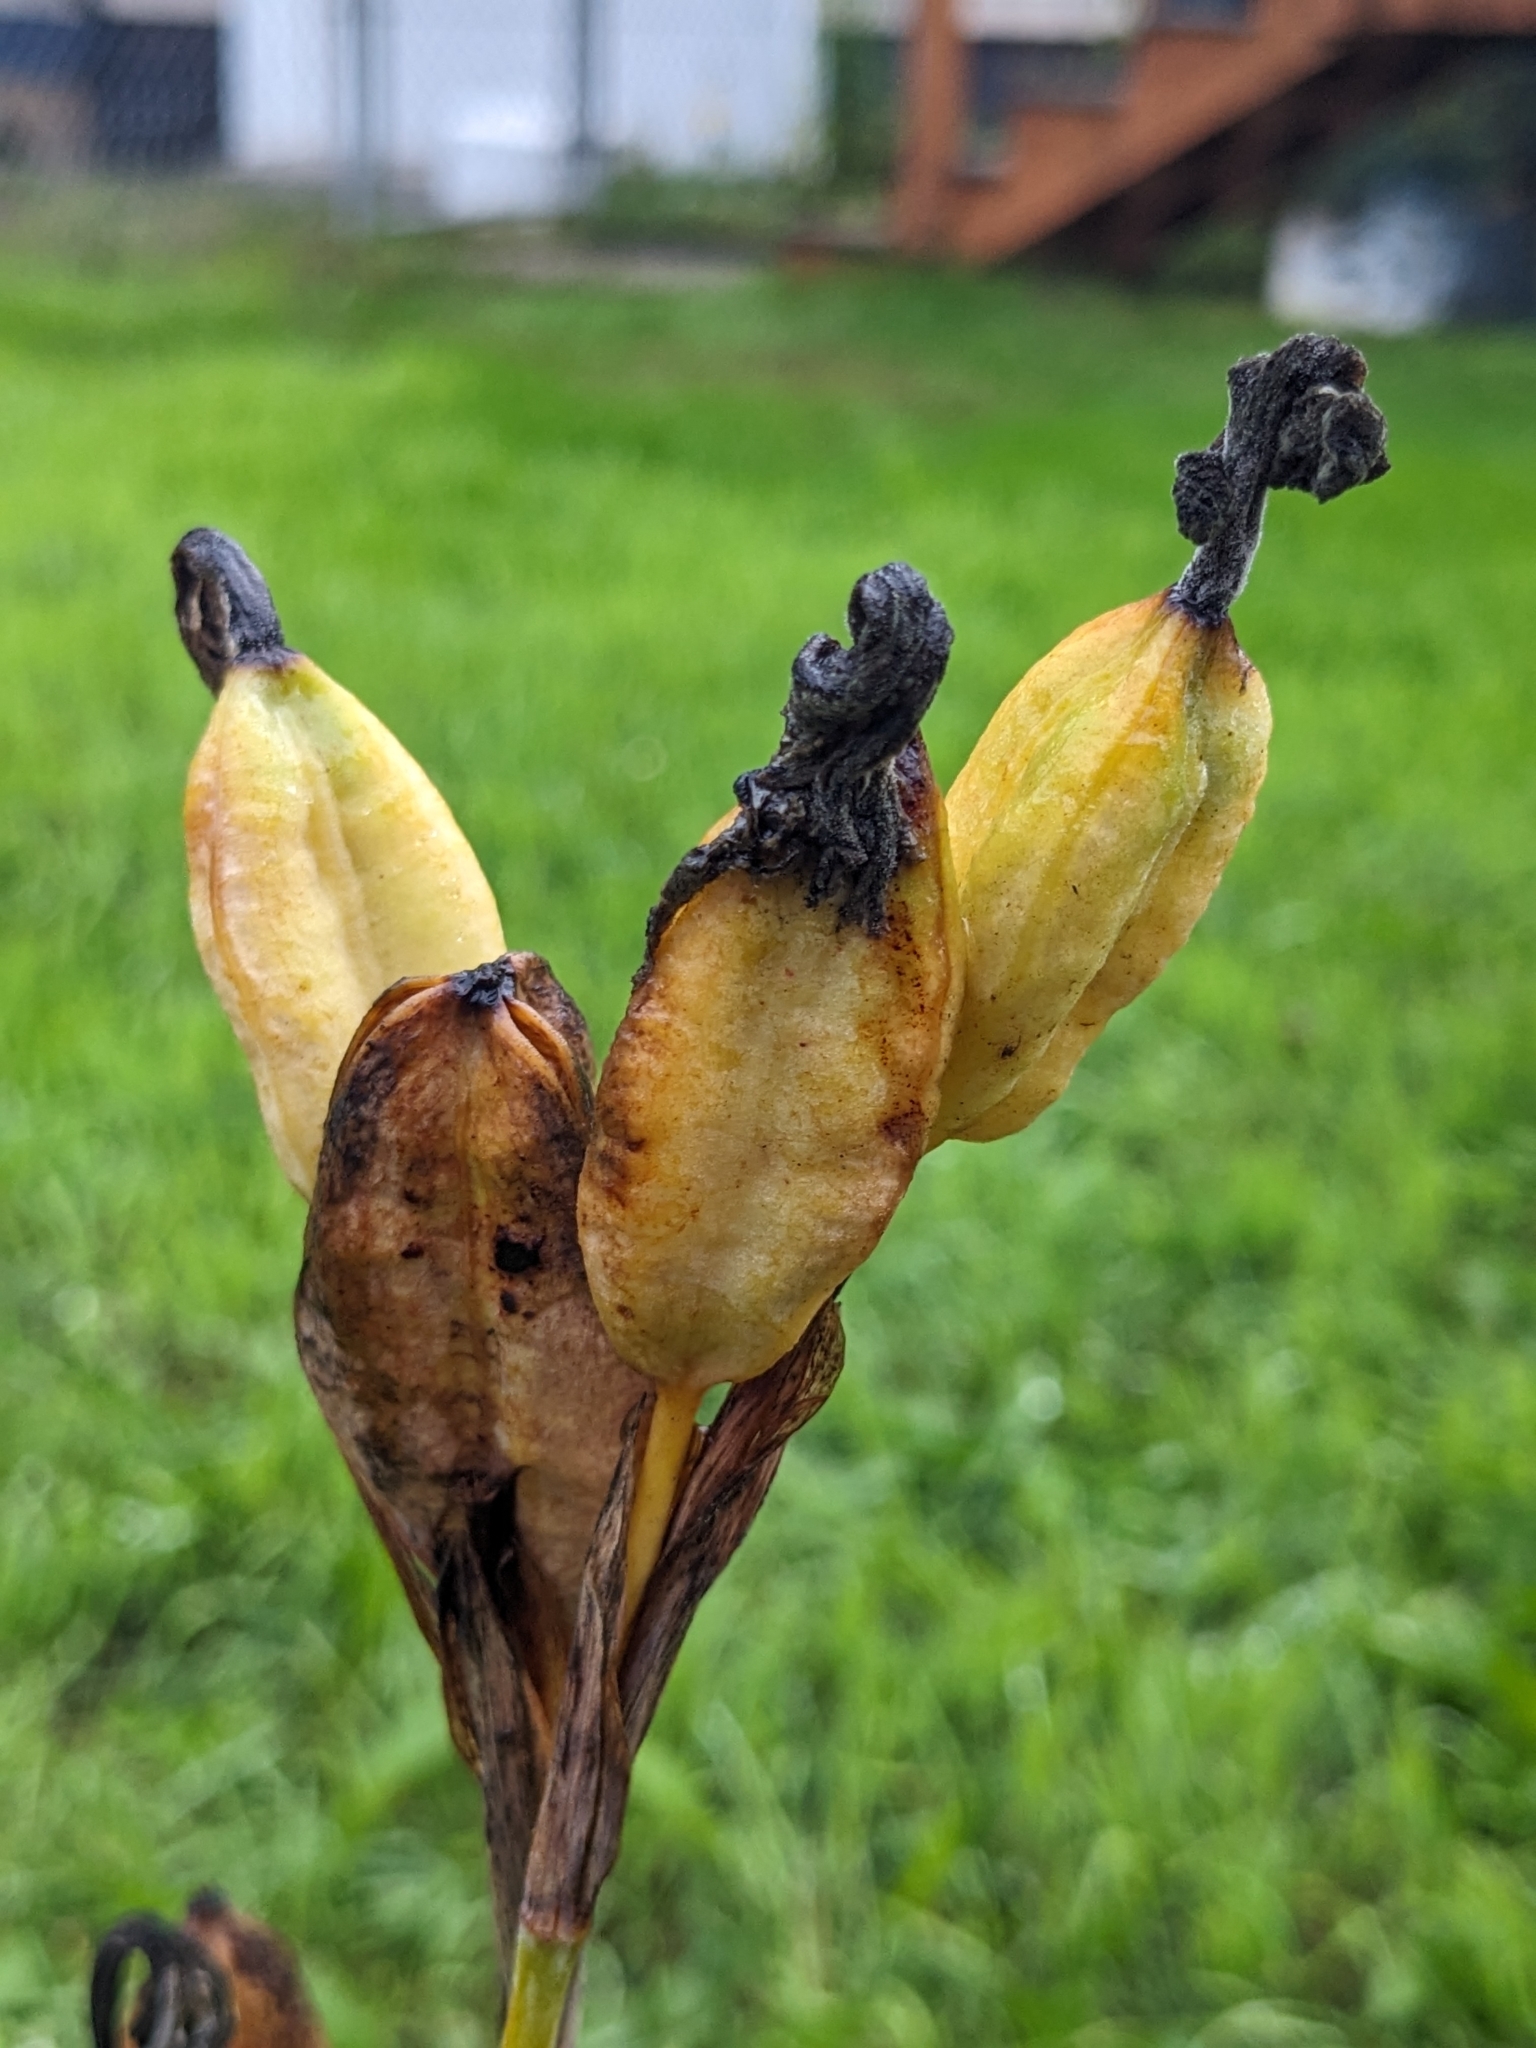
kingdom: Plantae
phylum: Tracheophyta
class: Liliopsida
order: Asparagales
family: Iridaceae
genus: Iris
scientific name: Iris setosa
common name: Arctic blue flag
